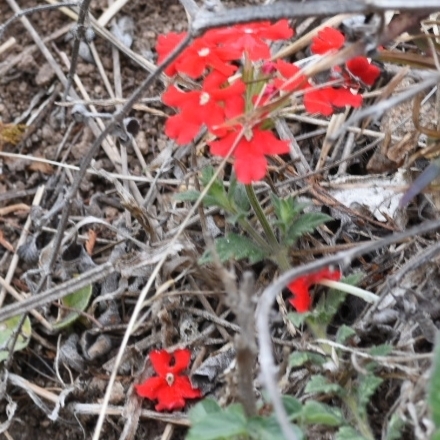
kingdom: Plantae
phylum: Tracheophyta
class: Magnoliopsida
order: Lamiales
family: Verbenaceae
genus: Verbena
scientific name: Verbena peruviana
